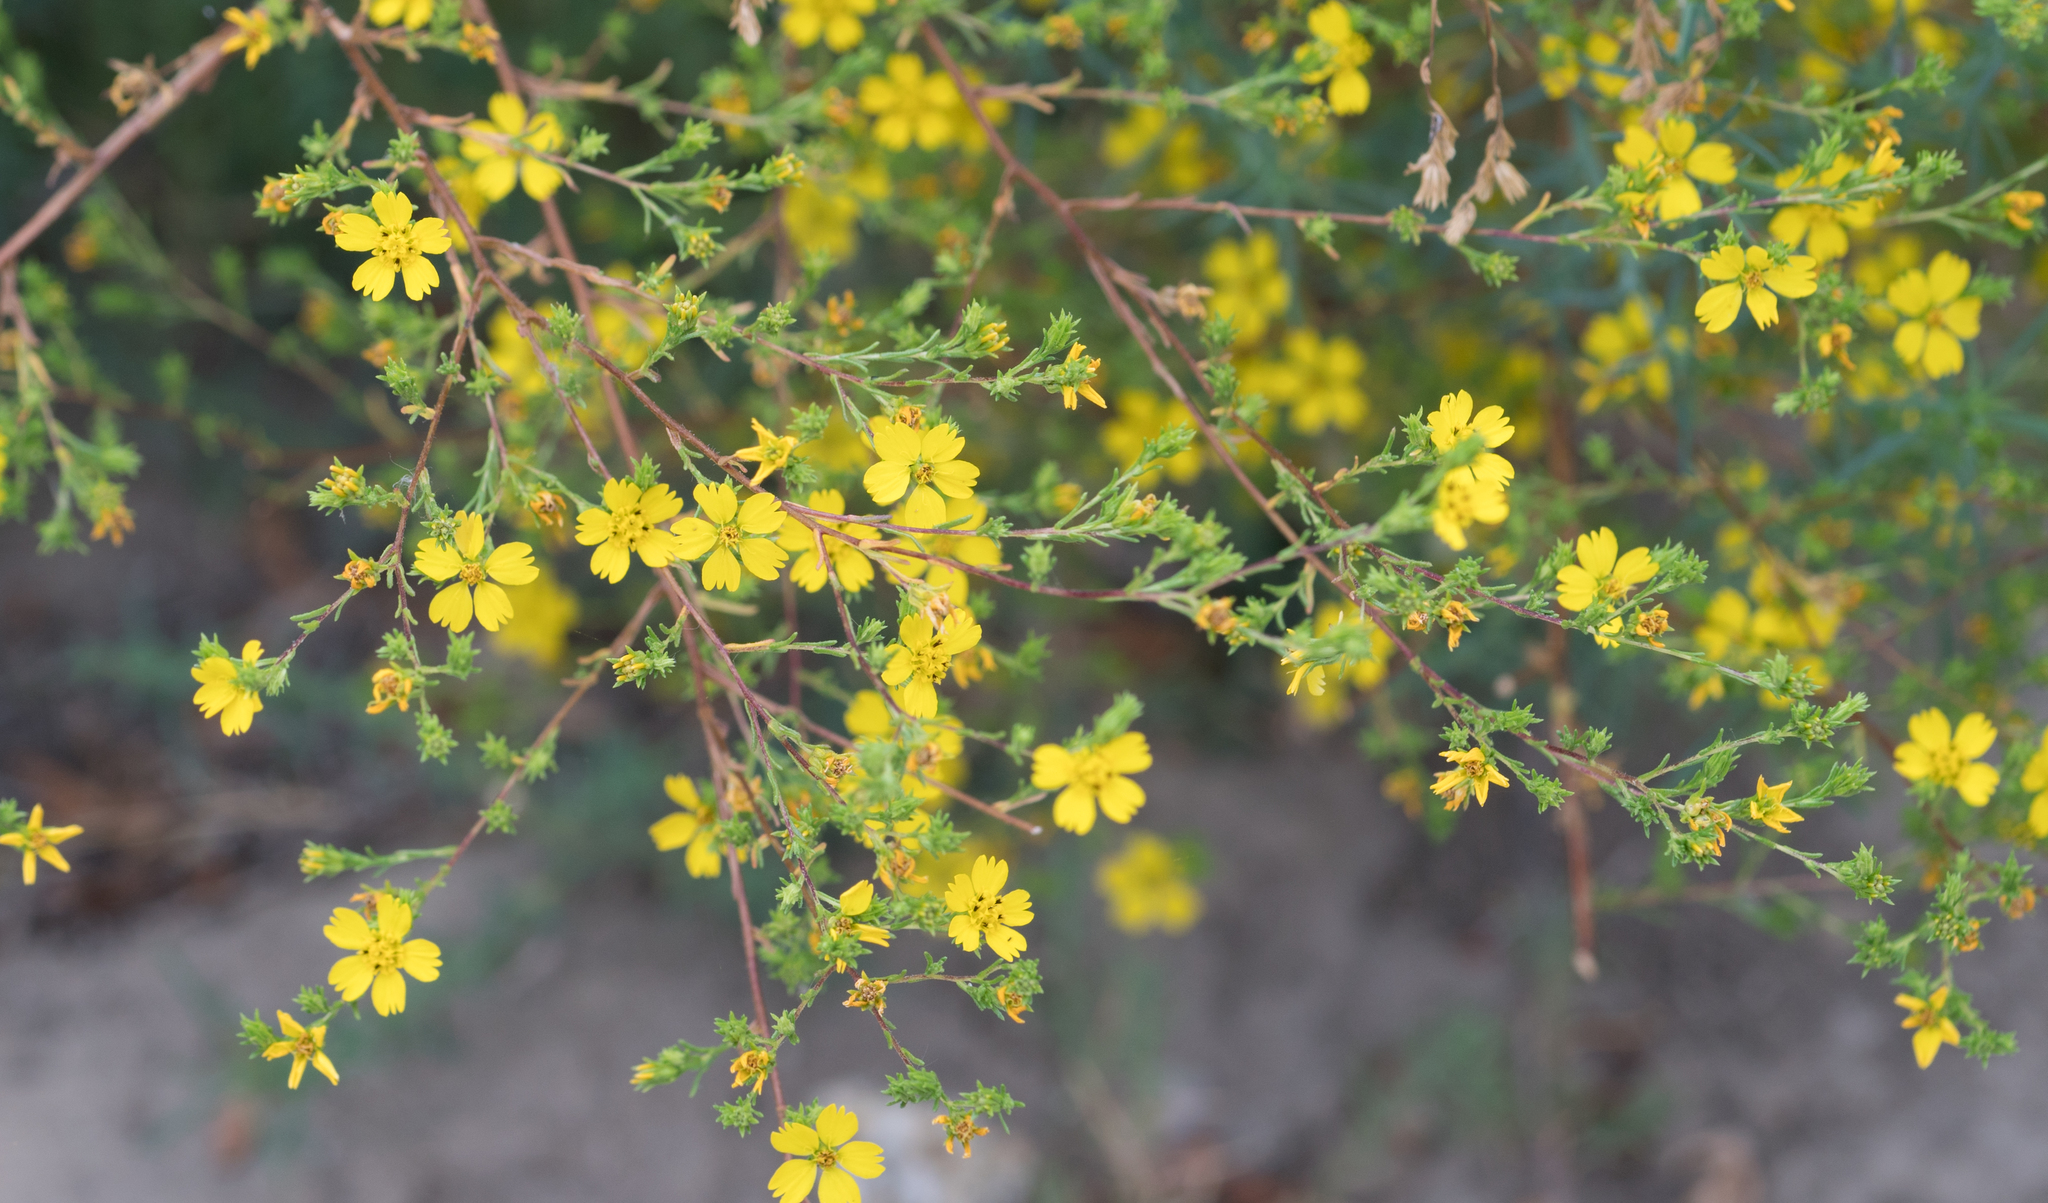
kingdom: Plantae
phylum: Tracheophyta
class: Magnoliopsida
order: Asterales
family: Asteraceae
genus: Deinandra
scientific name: Deinandra fasciculata
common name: Clustered tarweed
